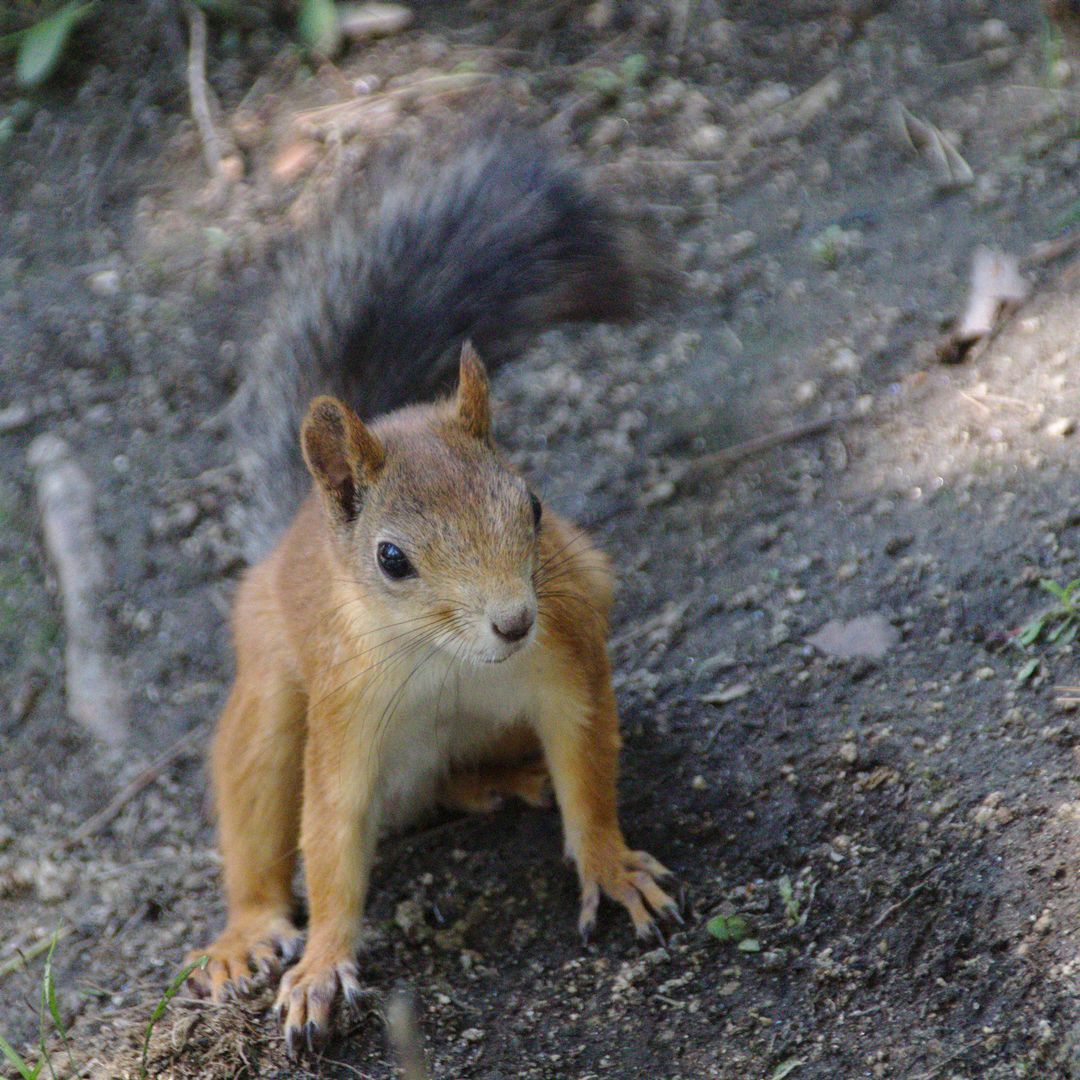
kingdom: Animalia
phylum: Chordata
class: Mammalia
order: Rodentia
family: Sciuridae
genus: Sciurus
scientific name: Sciurus vulgaris
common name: Eurasian red squirrel
